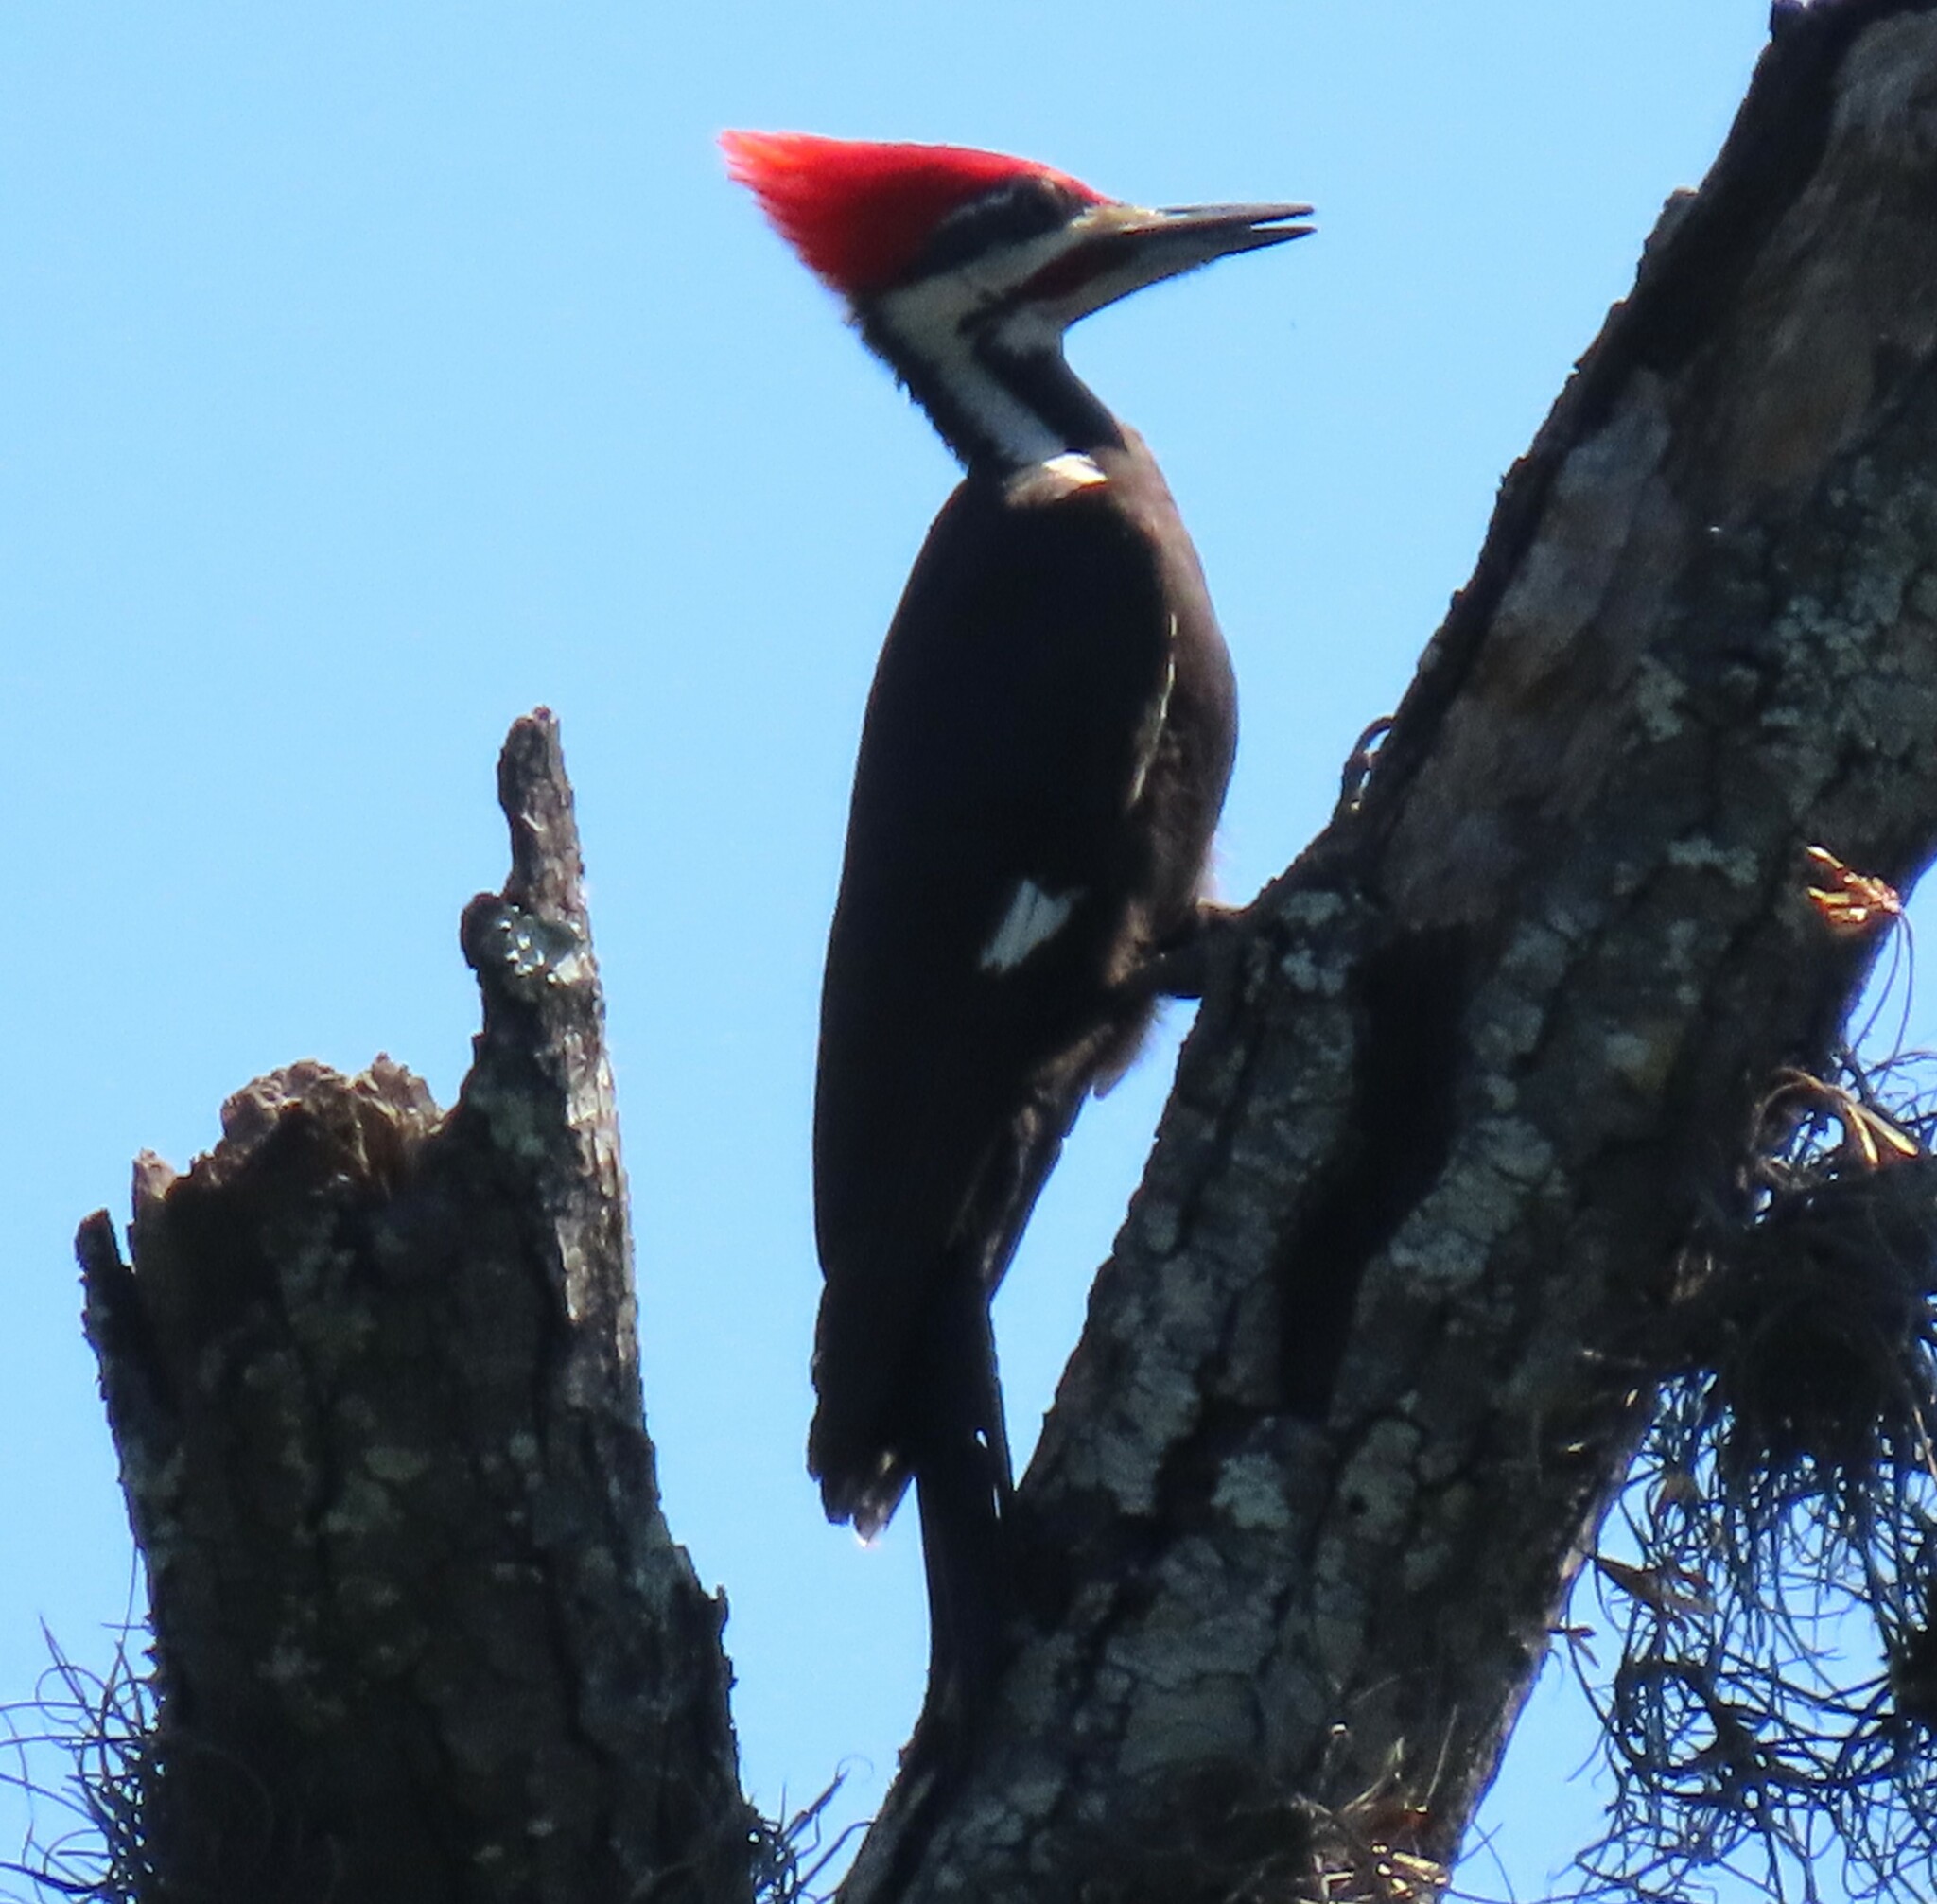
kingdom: Animalia
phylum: Chordata
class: Aves
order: Piciformes
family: Picidae
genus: Dryocopus
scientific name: Dryocopus pileatus
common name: Pileated woodpecker
